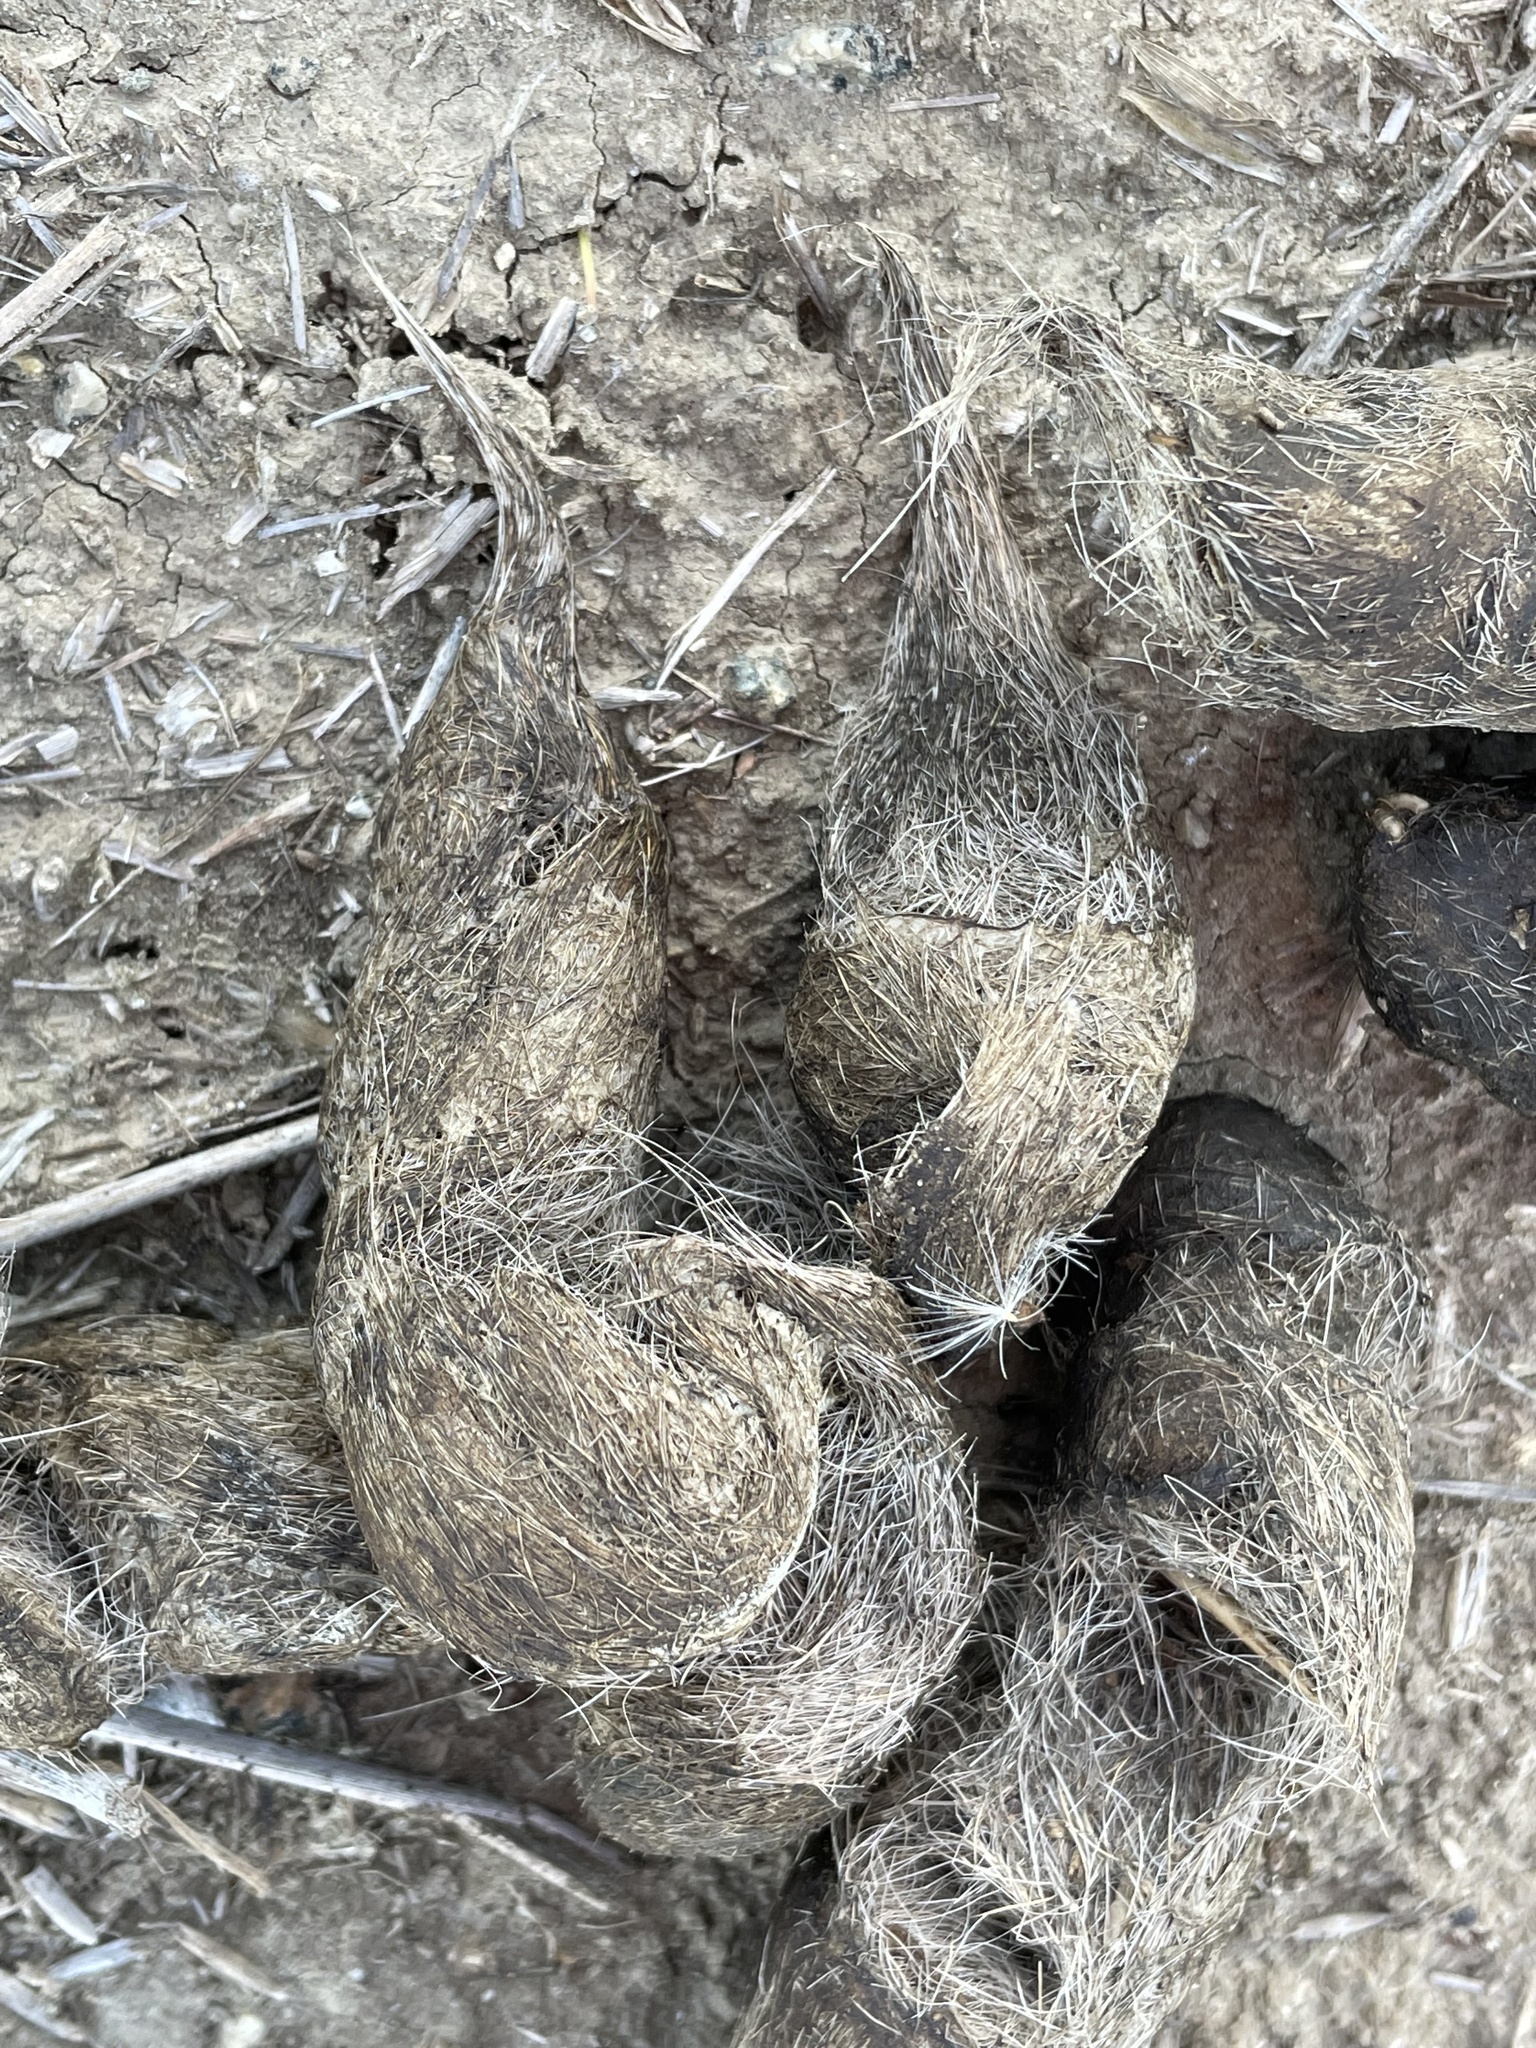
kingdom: Animalia
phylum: Chordata
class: Mammalia
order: Carnivora
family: Canidae
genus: Canis
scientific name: Canis latrans
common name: Coyote
